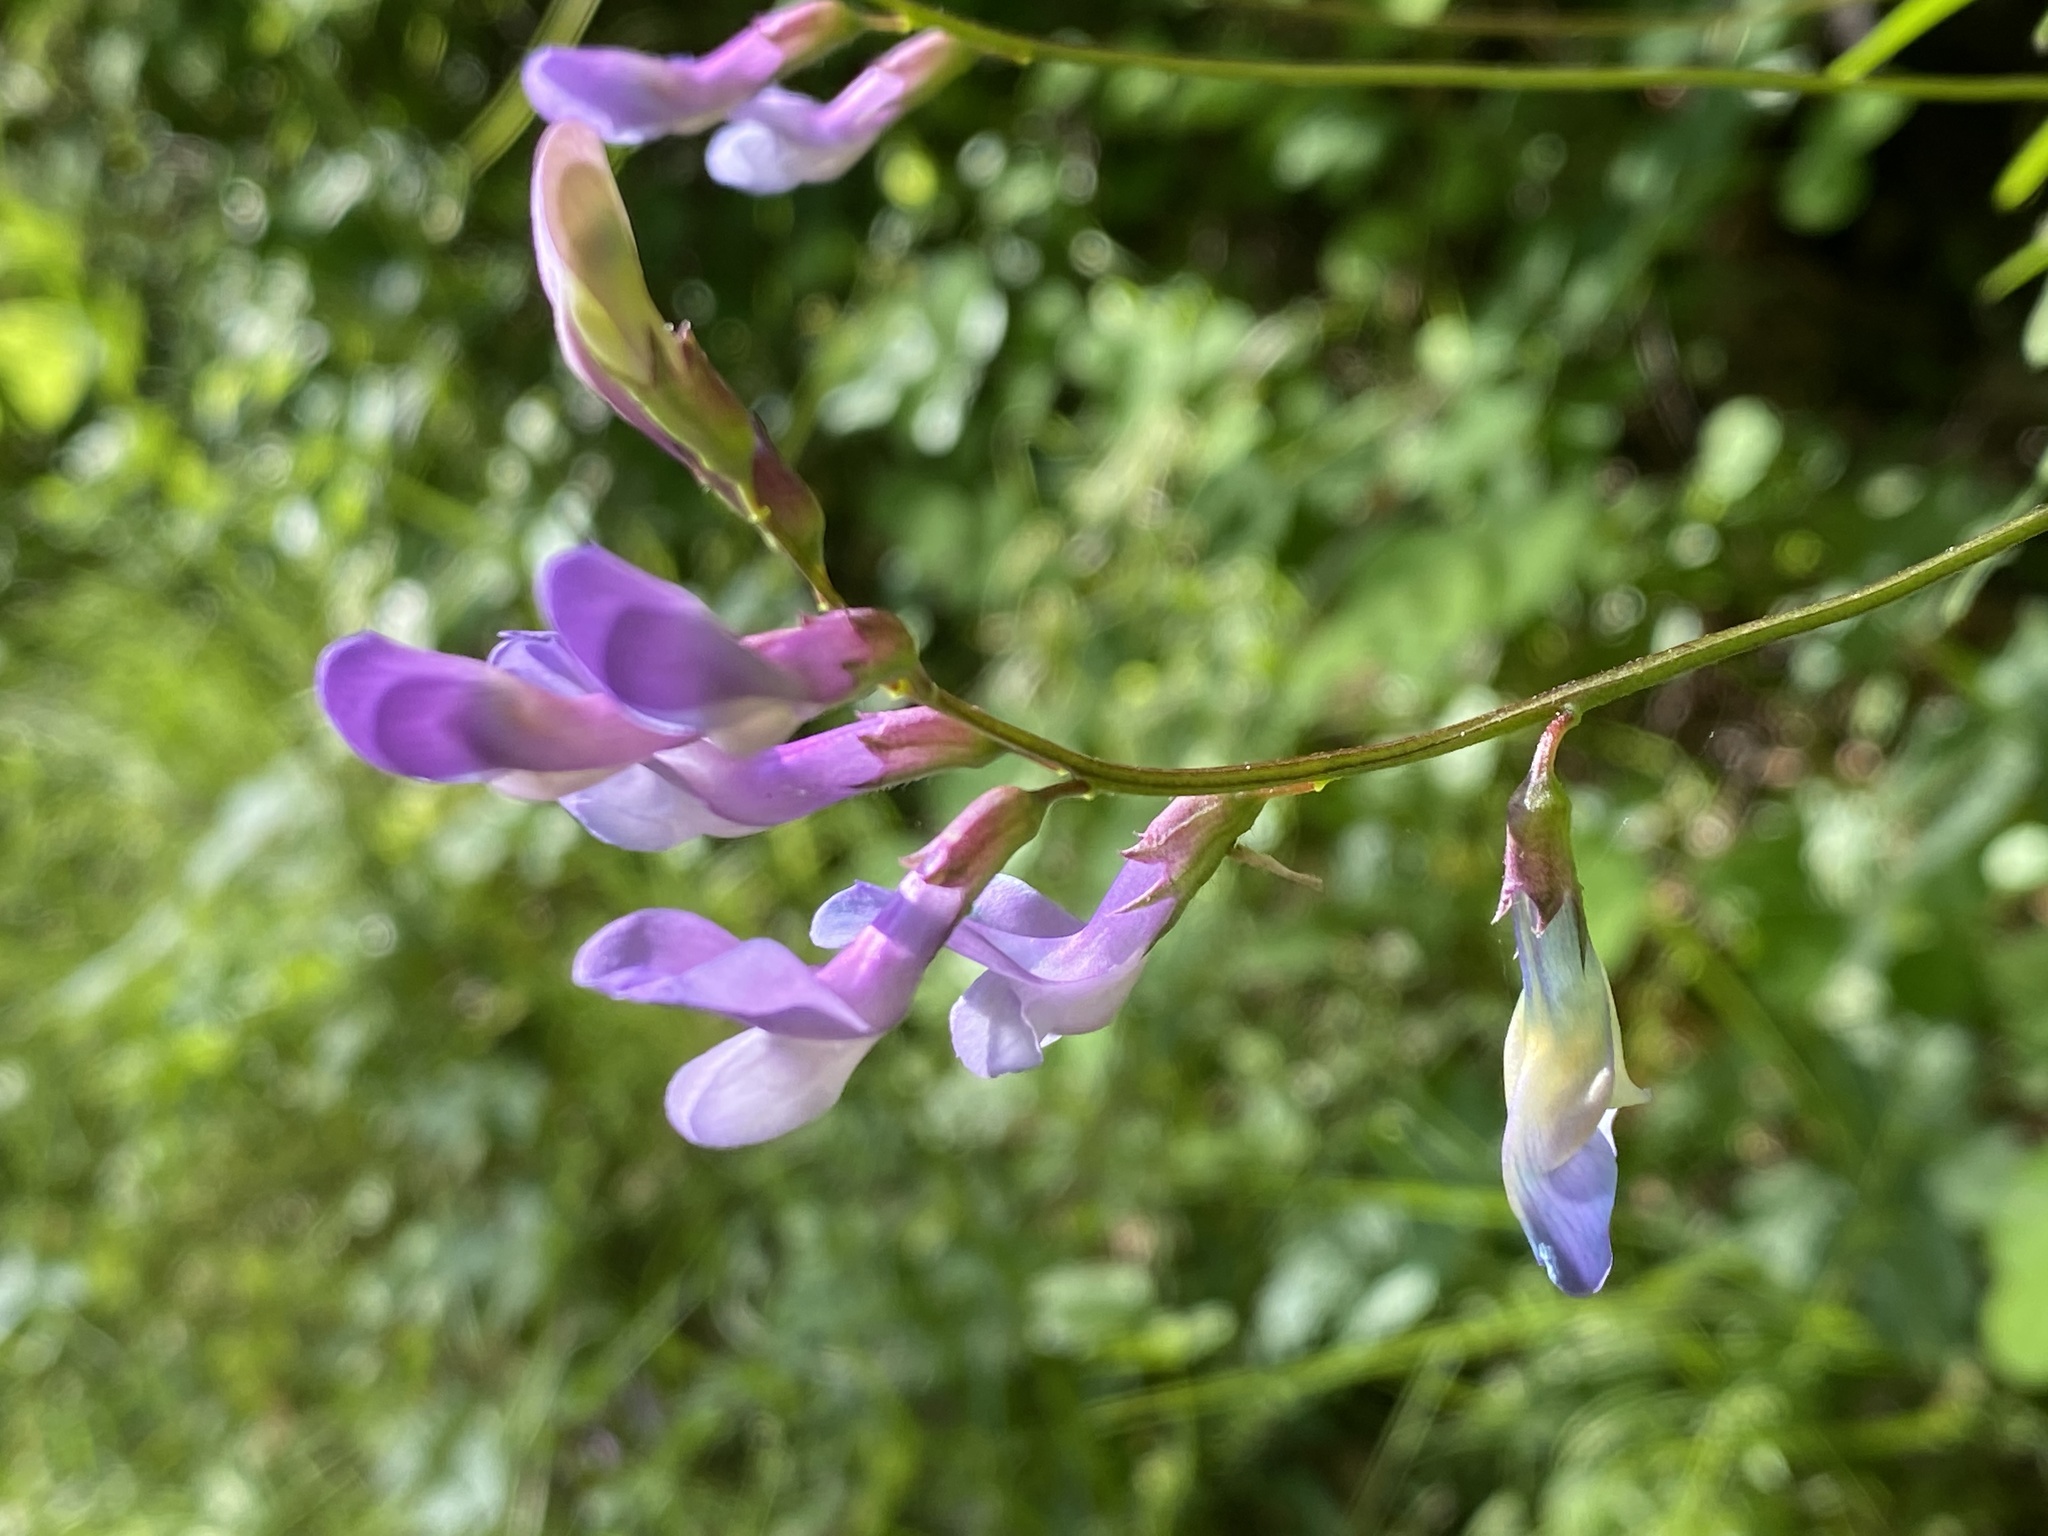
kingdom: Plantae
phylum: Tracheophyta
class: Magnoliopsida
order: Fabales
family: Fabaceae
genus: Vicia
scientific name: Vicia americana
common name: American vetch
